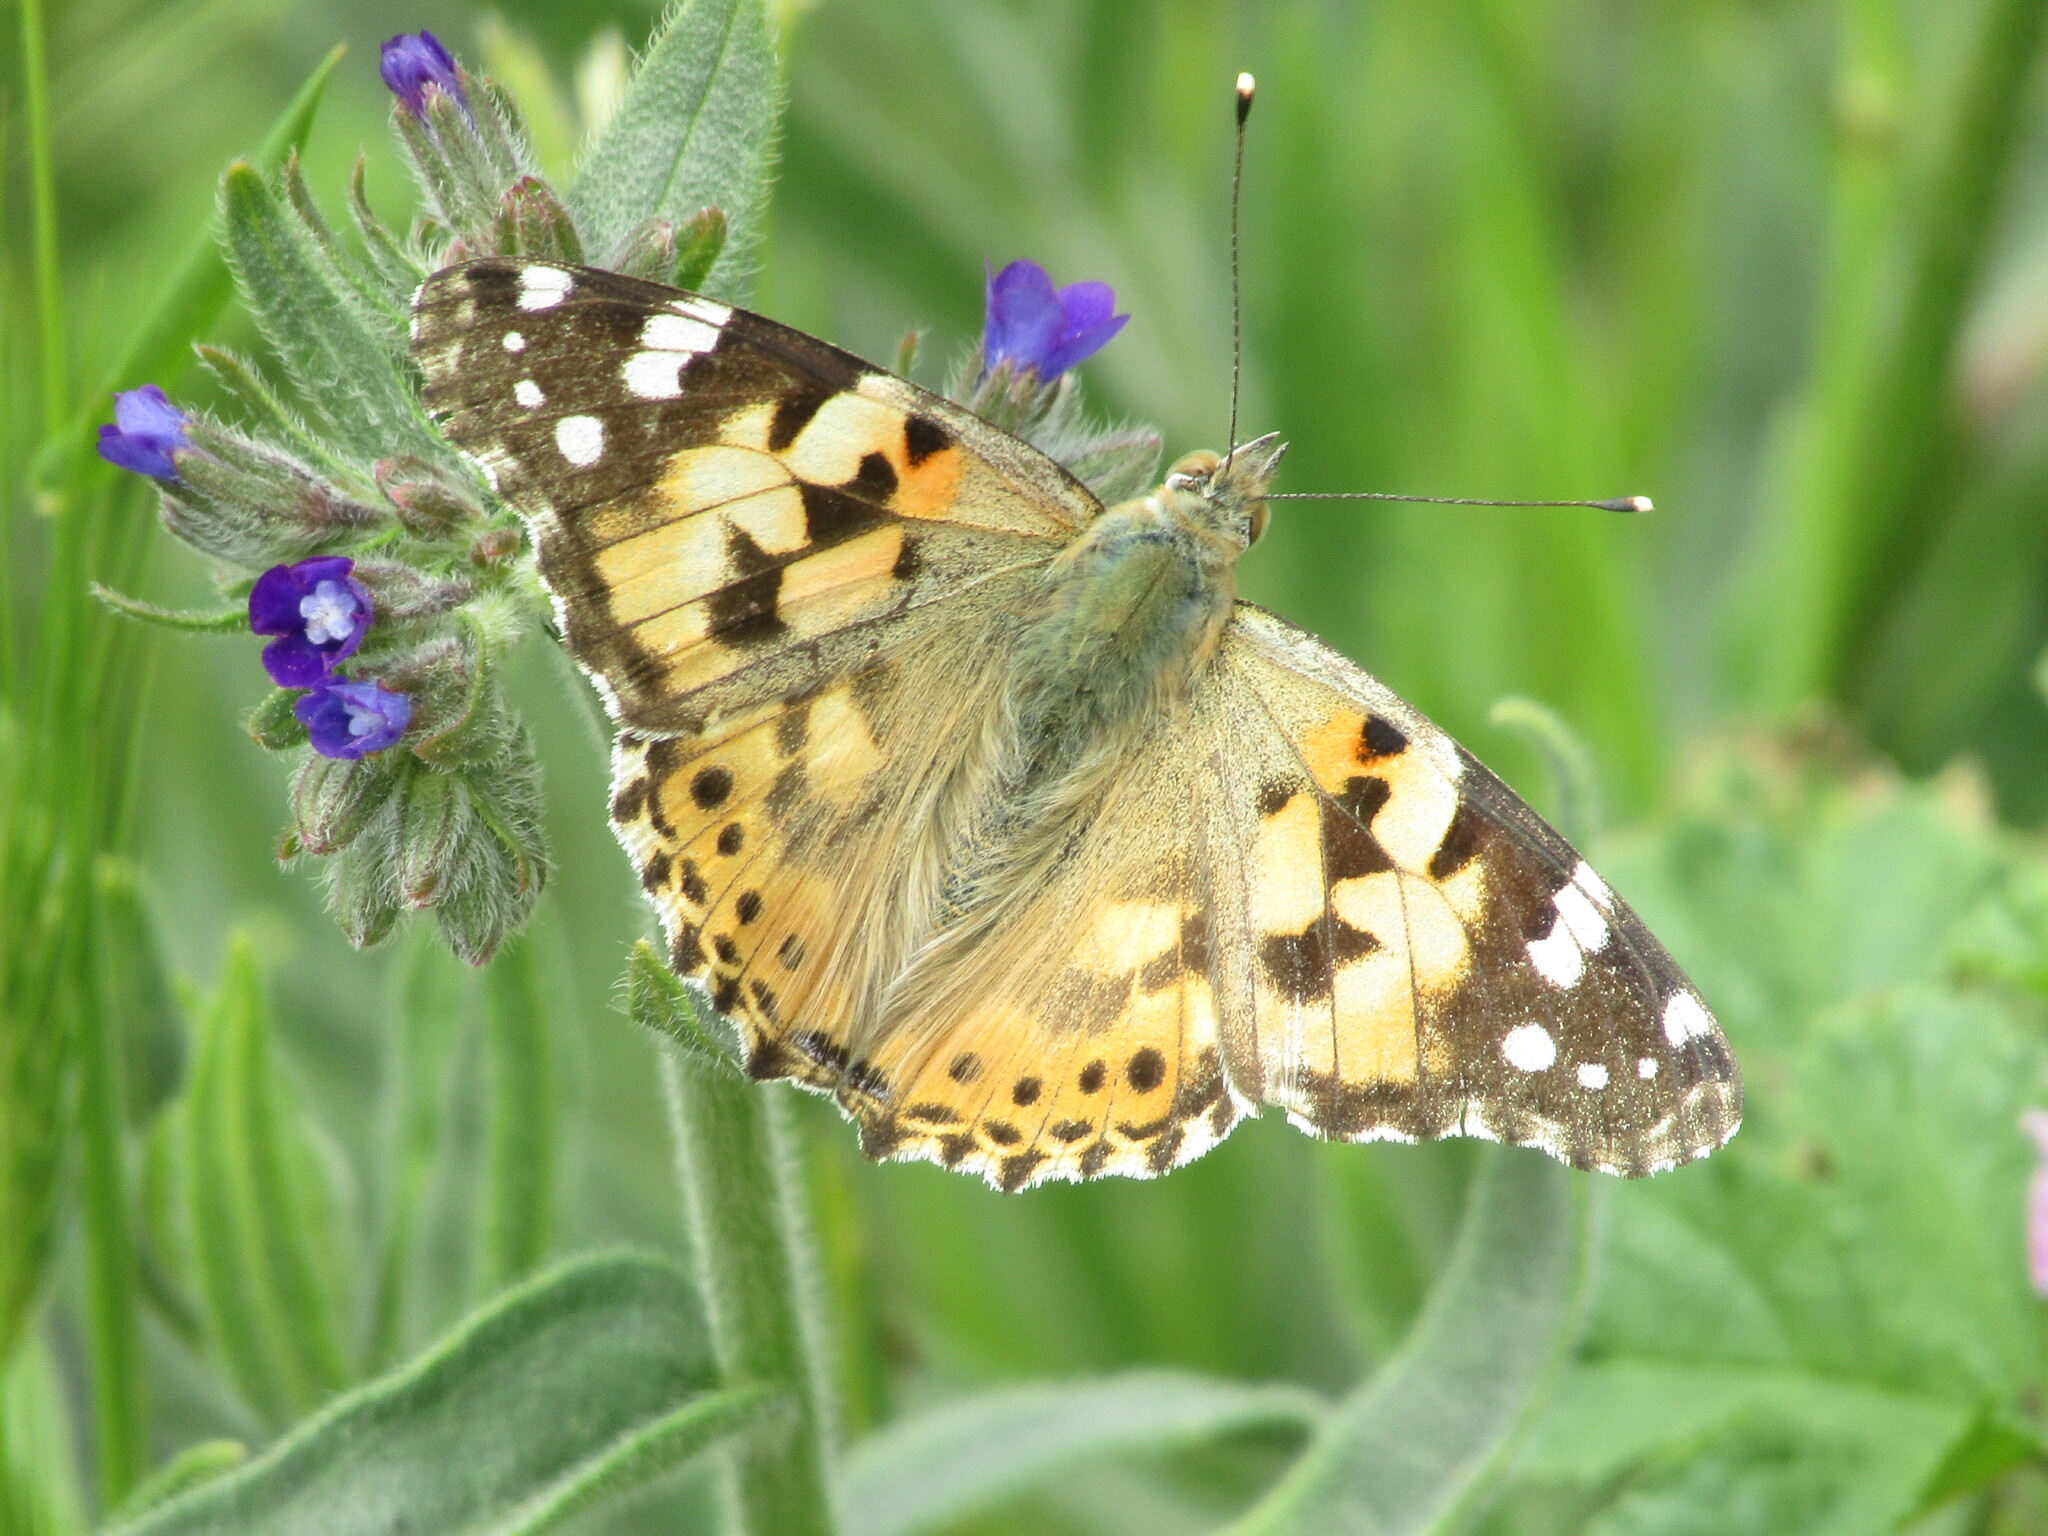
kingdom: Animalia
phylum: Arthropoda
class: Insecta
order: Lepidoptera
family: Nymphalidae
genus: Vanessa
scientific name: Vanessa cardui
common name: Painted lady
